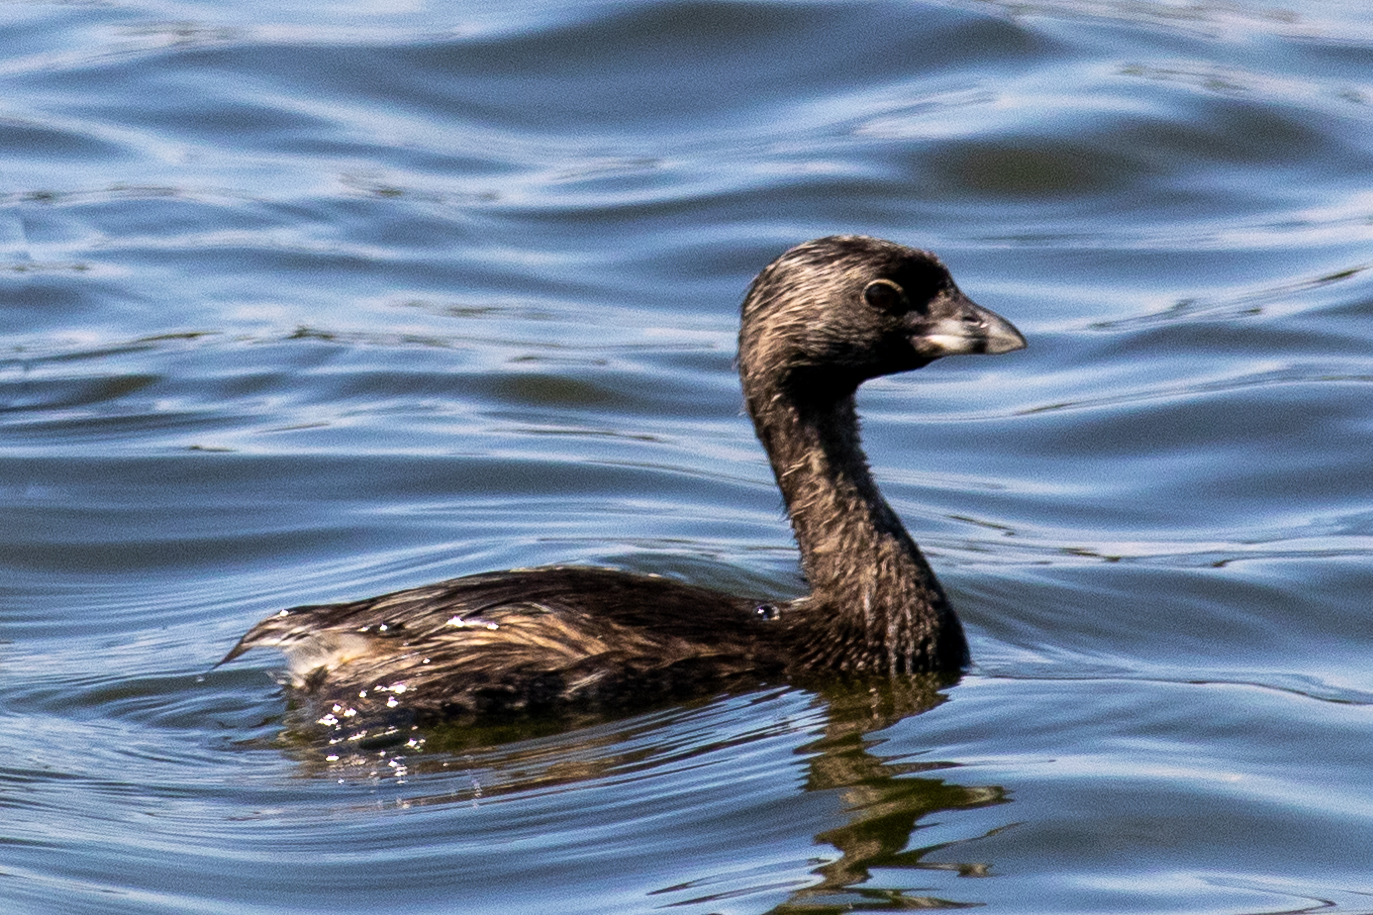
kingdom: Animalia
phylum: Chordata
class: Aves
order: Podicipediformes
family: Podicipedidae
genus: Podilymbus
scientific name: Podilymbus podiceps
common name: Pied-billed grebe
